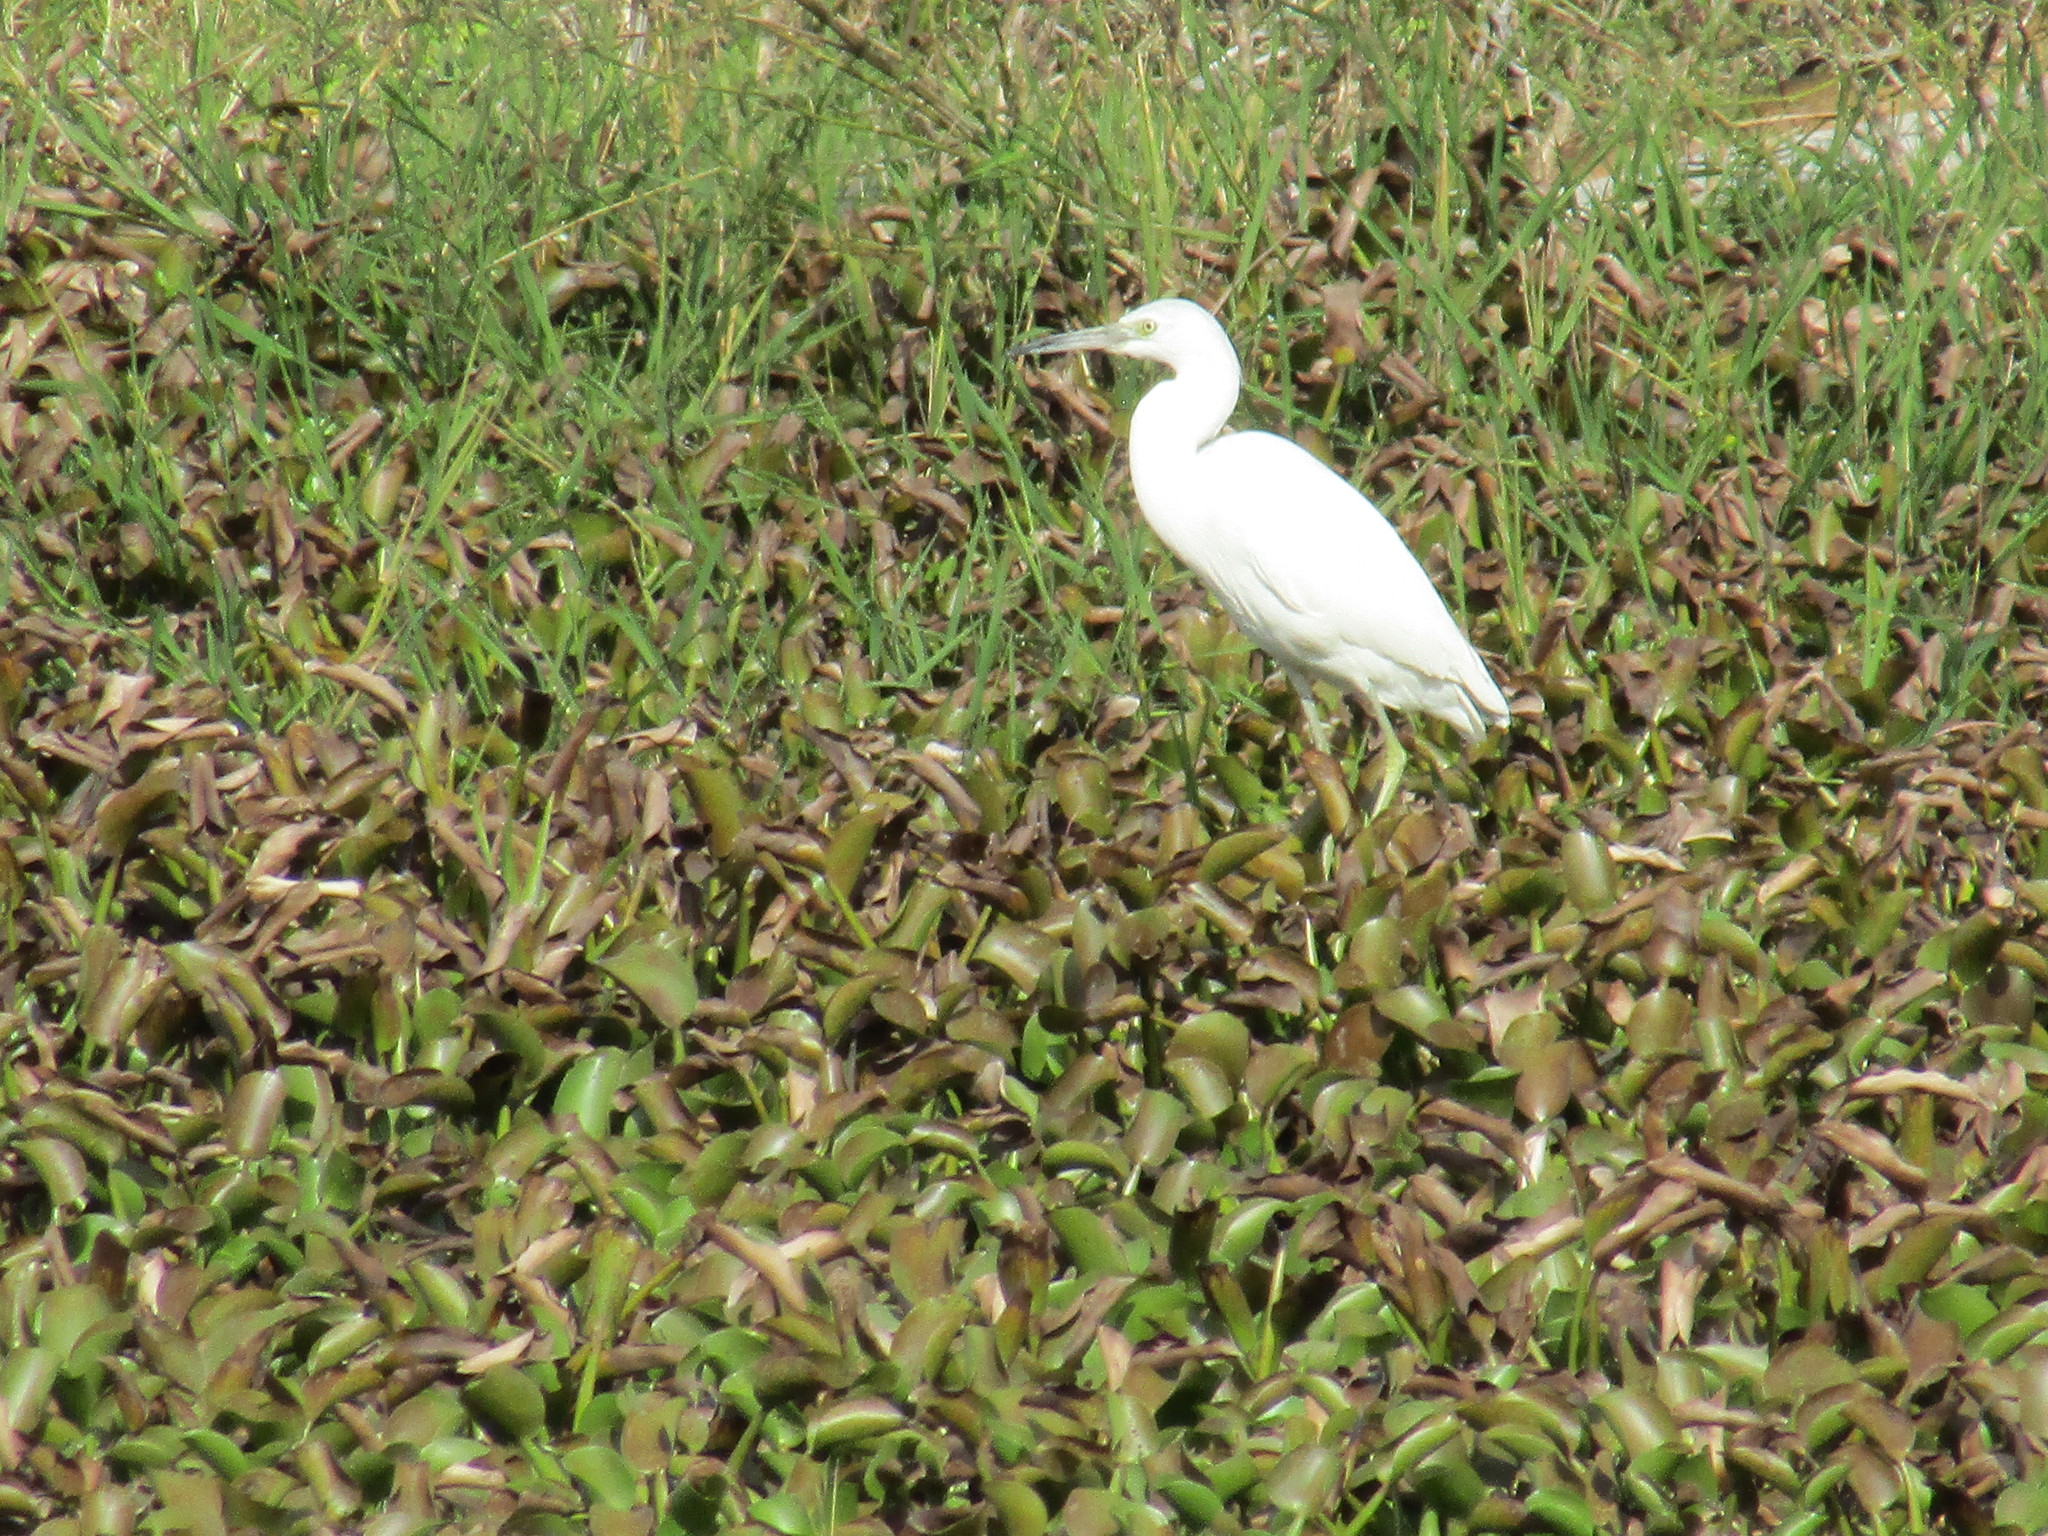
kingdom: Animalia
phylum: Chordata
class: Aves
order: Pelecaniformes
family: Ardeidae
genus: Egretta
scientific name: Egretta caerulea
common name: Little blue heron
